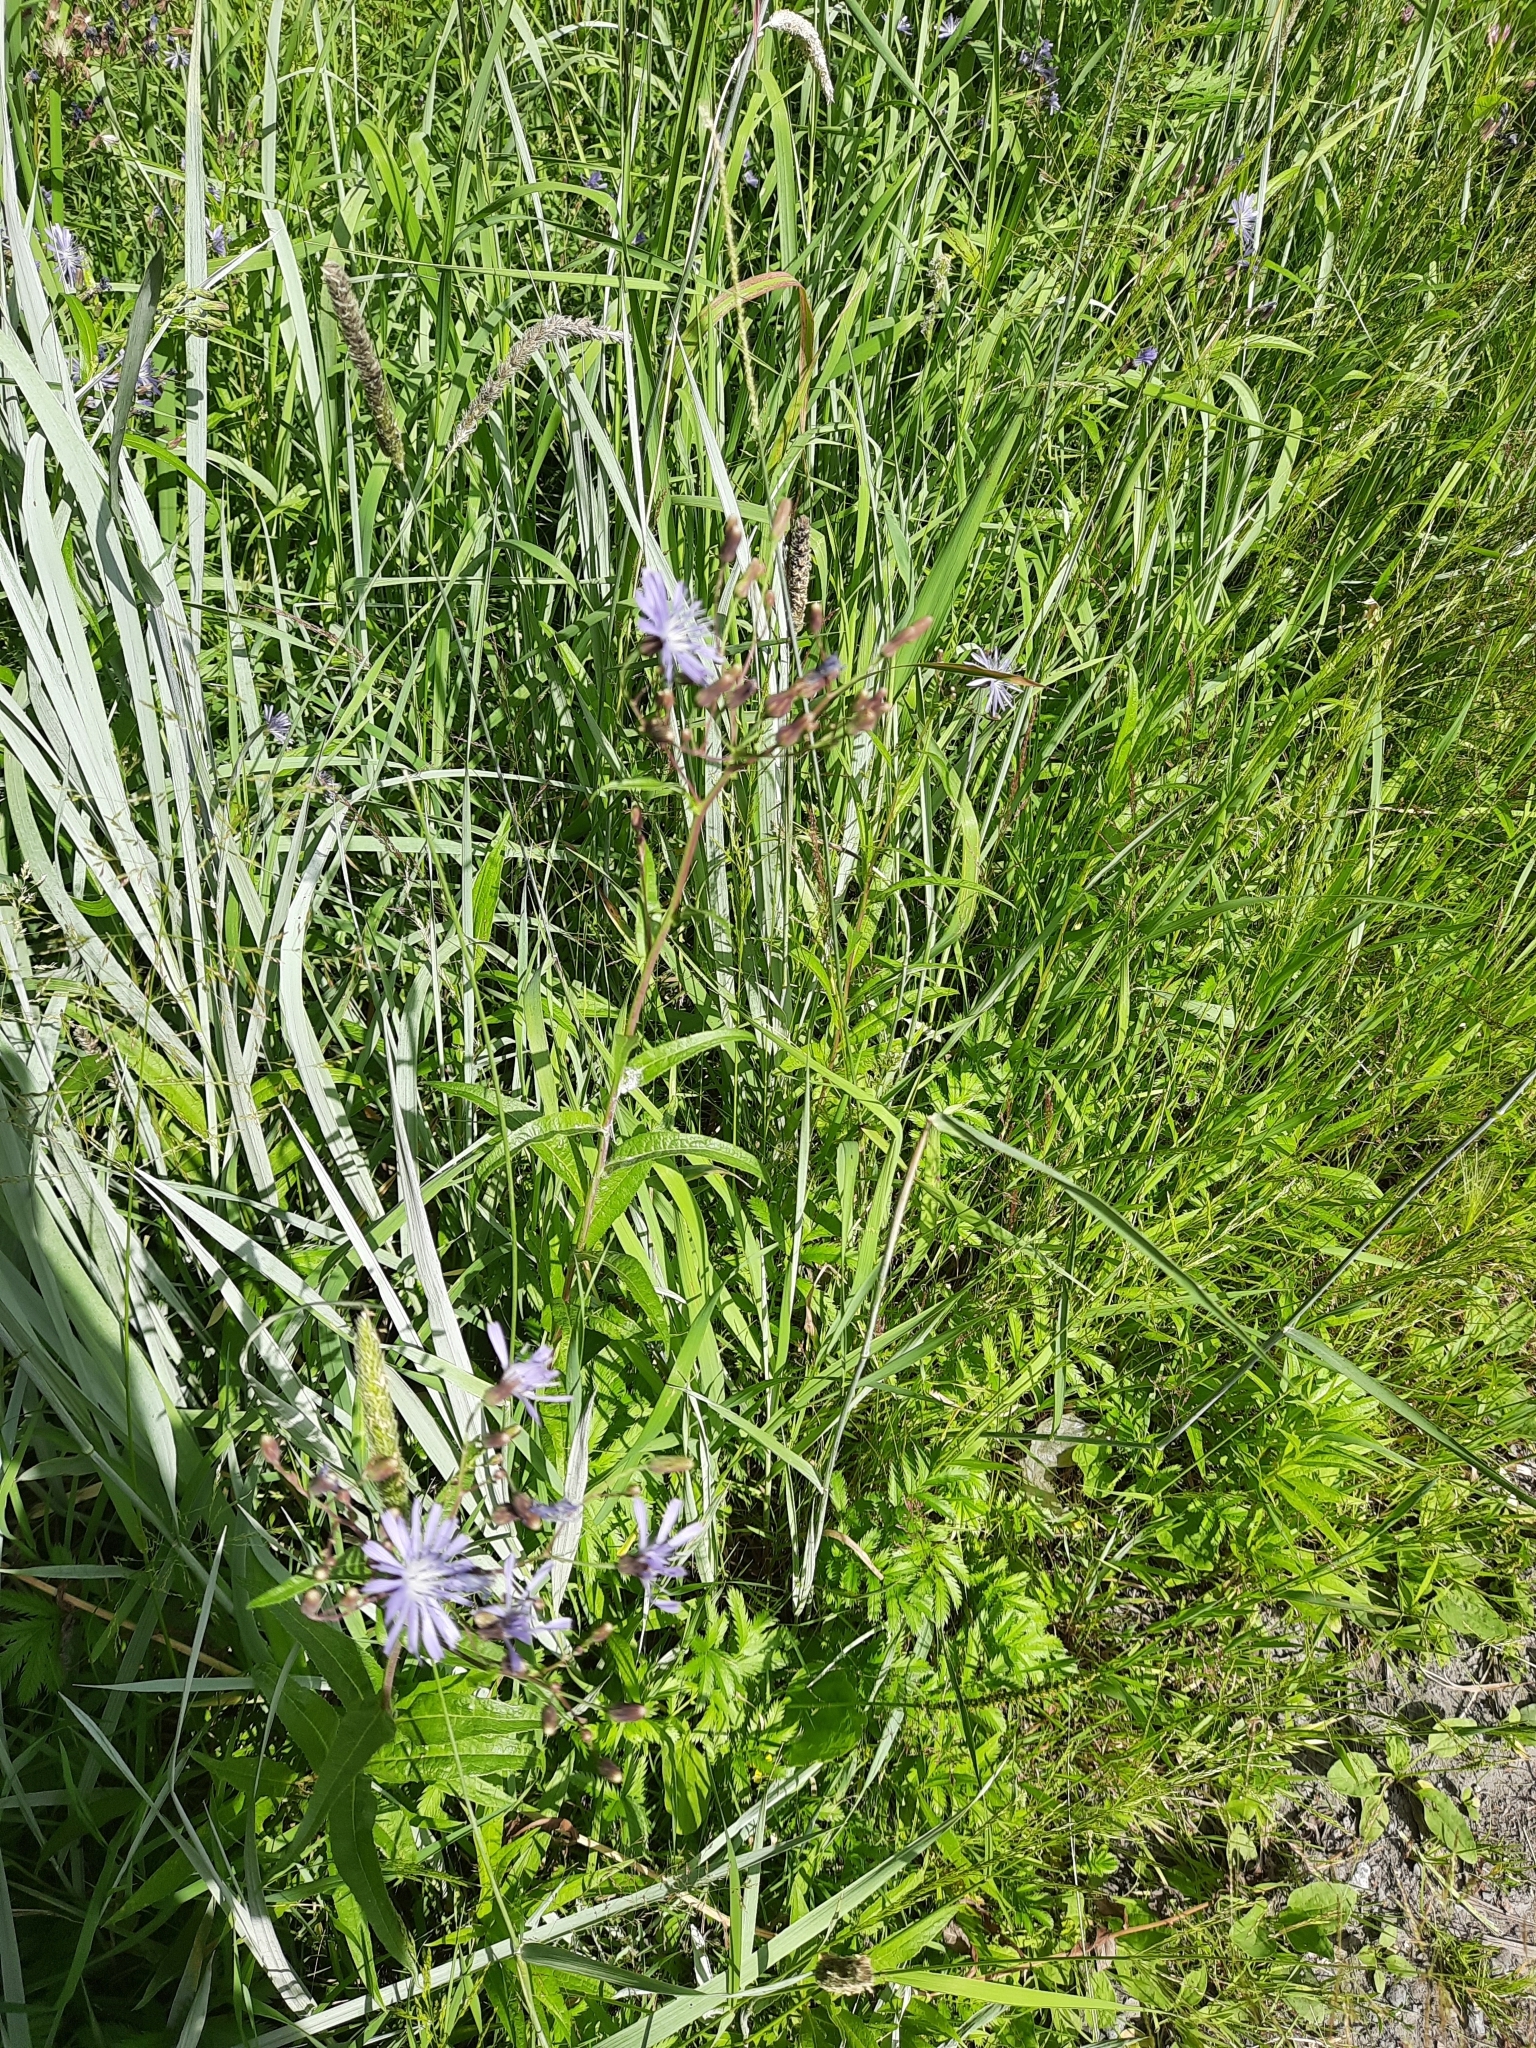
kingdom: Plantae
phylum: Tracheophyta
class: Magnoliopsida
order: Asterales
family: Asteraceae
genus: Lactuca
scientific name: Lactuca sibirica
